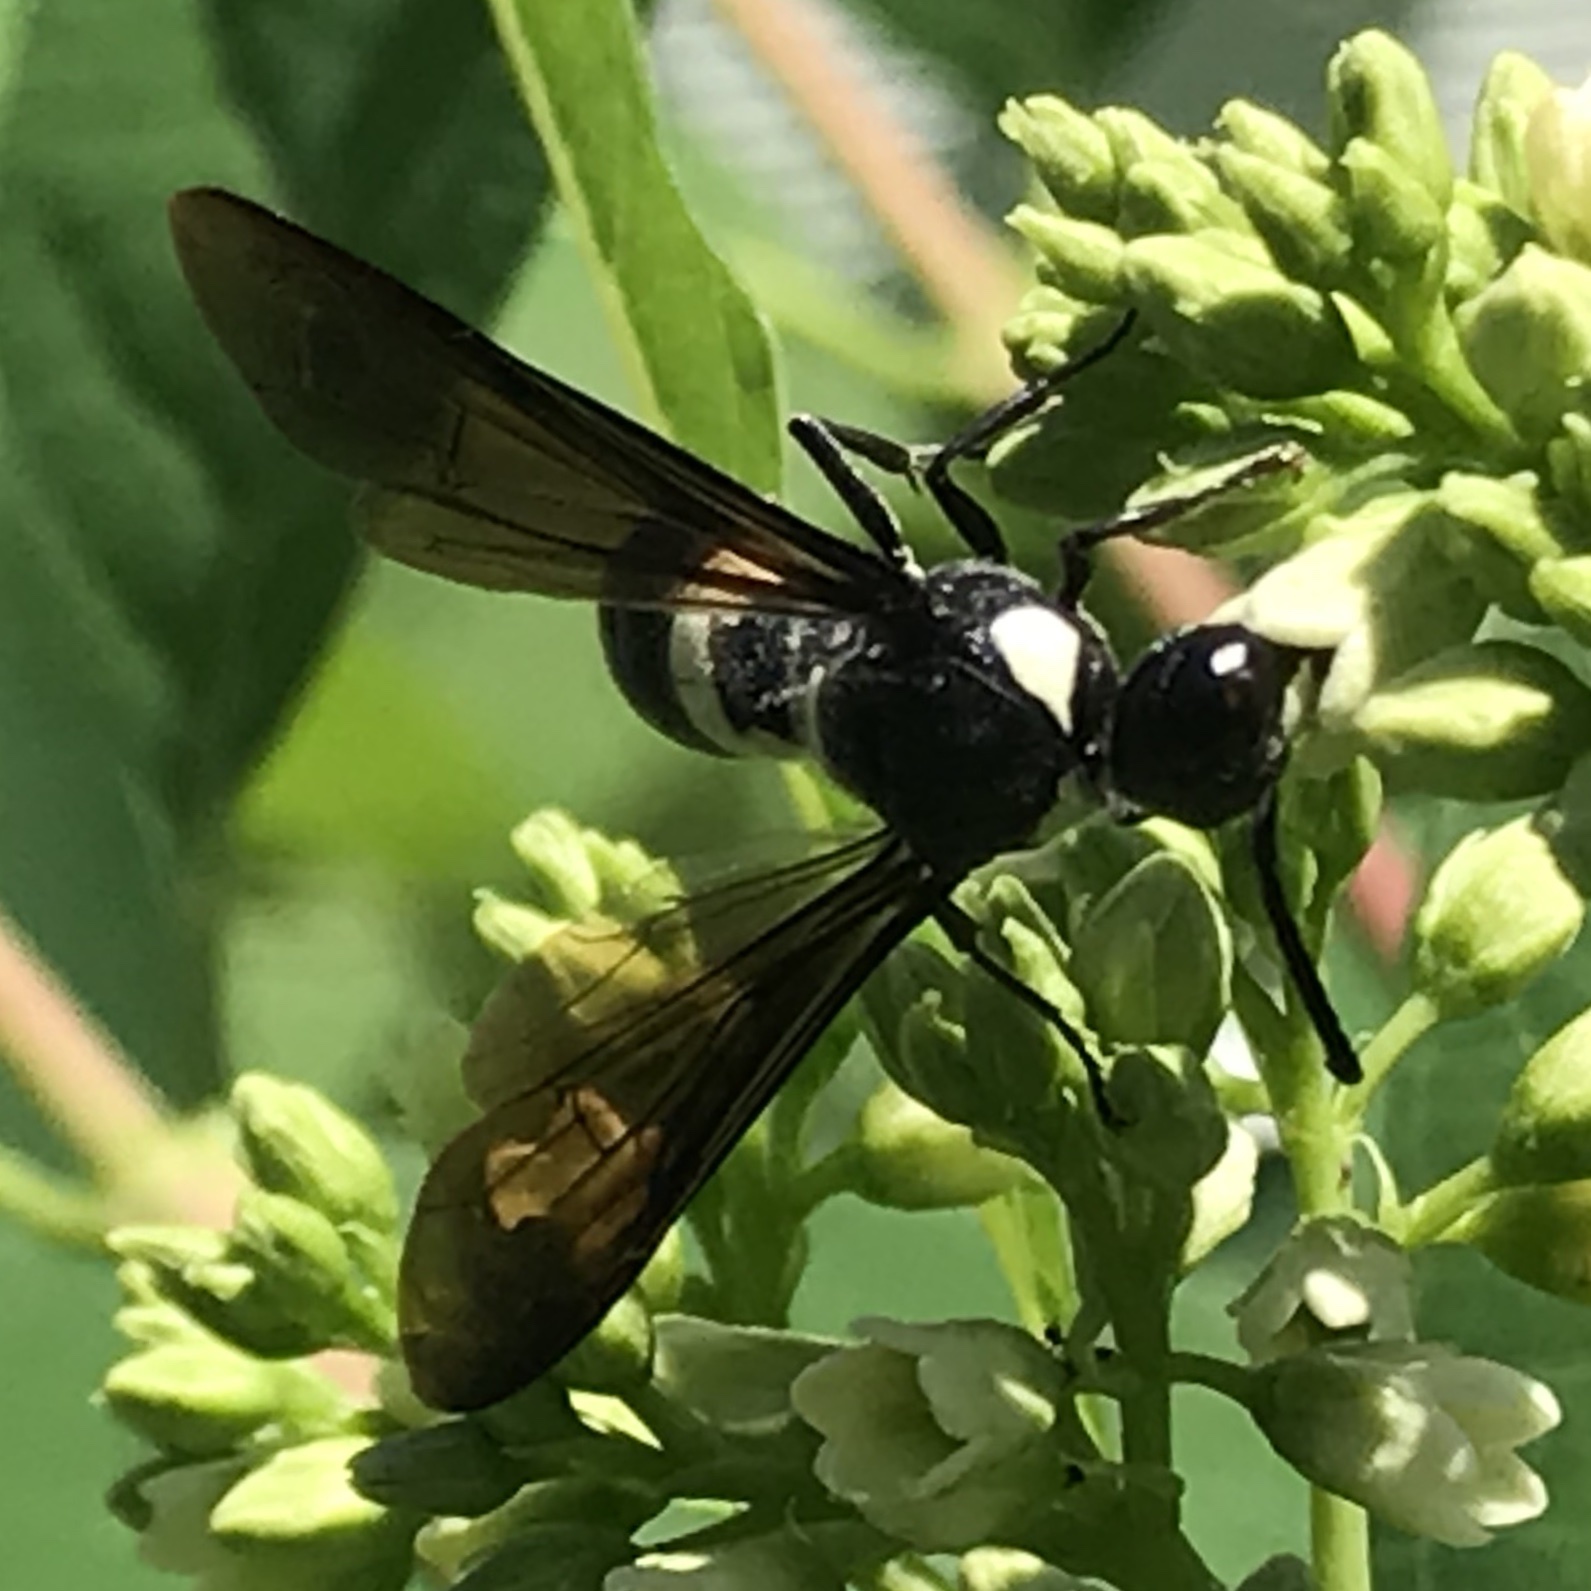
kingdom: Animalia
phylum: Arthropoda
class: Insecta
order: Hymenoptera
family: Eumenidae
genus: Monobia
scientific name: Monobia quadridens
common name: Four-toothed mason wasp
